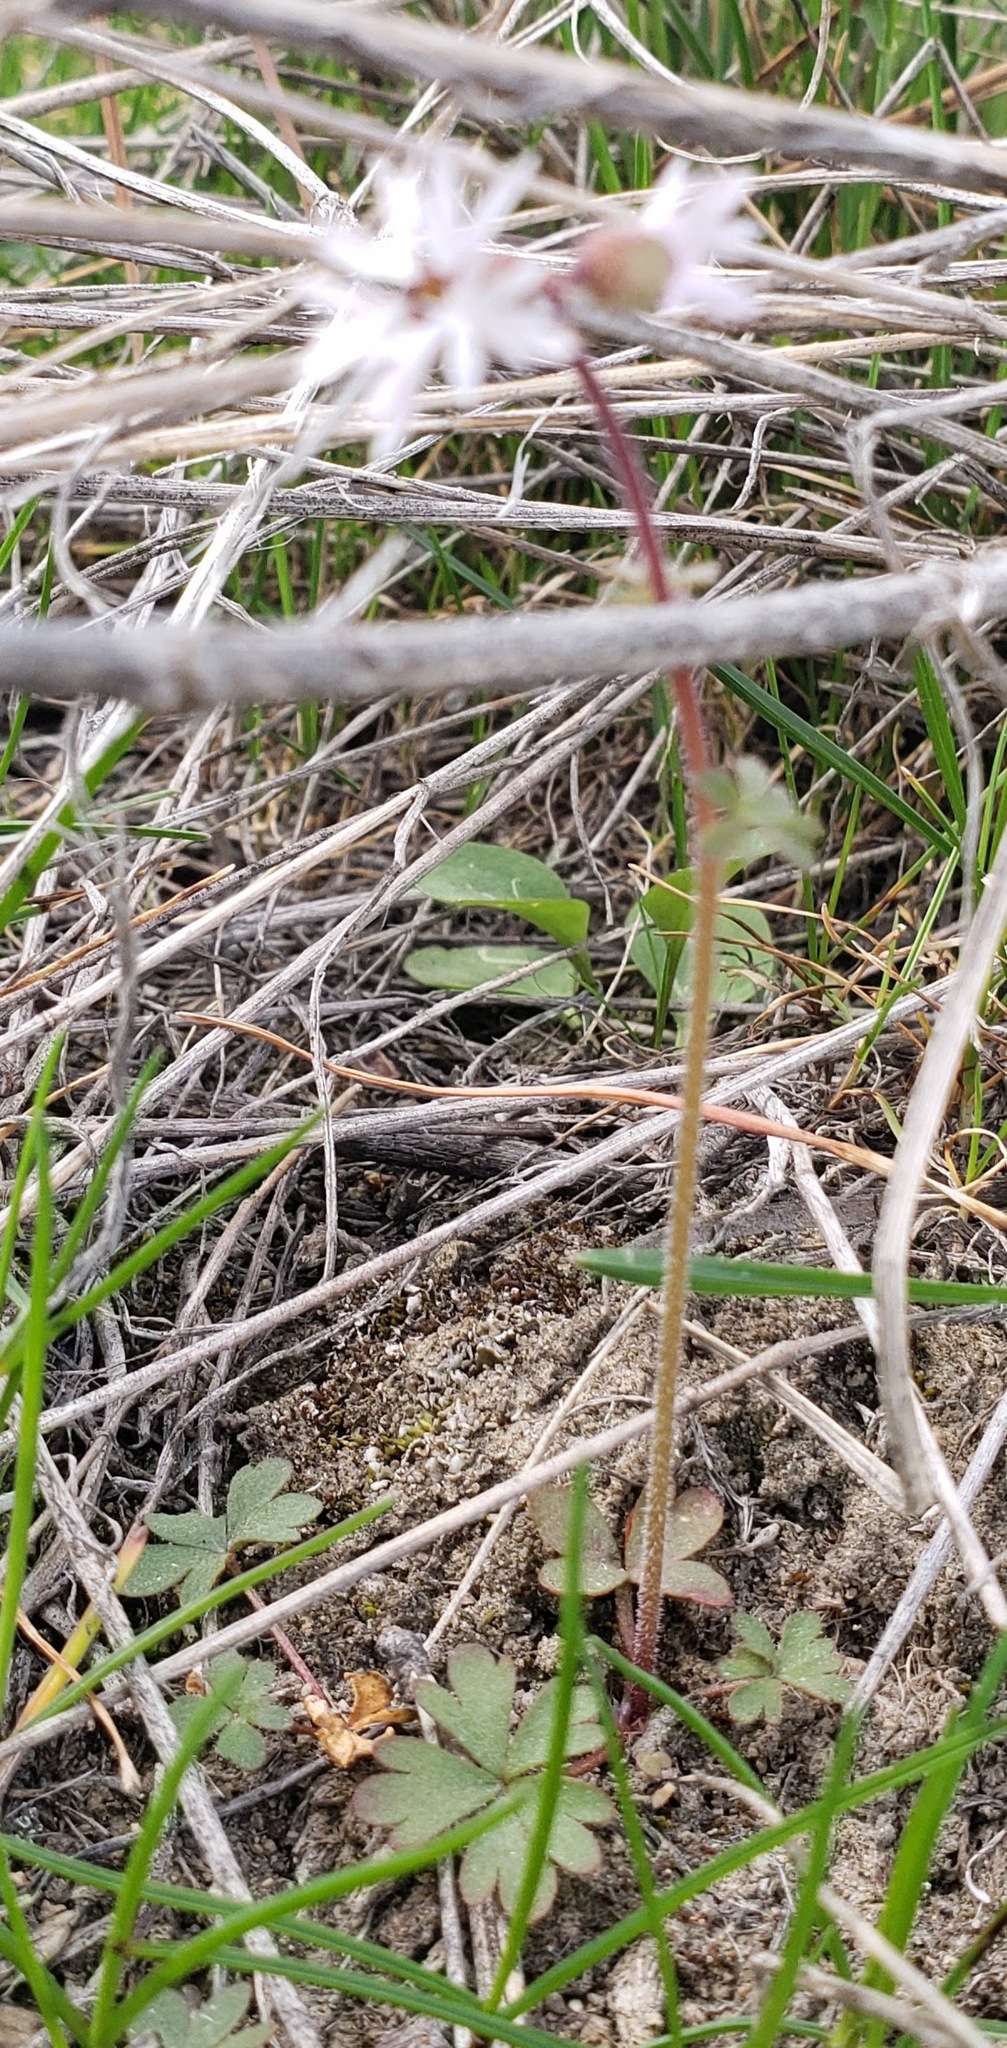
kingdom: Plantae
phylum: Tracheophyta
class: Magnoliopsida
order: Saxifragales
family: Saxifragaceae
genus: Lithophragma
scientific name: Lithophragma glabrum
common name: Bulbous prairie-star
